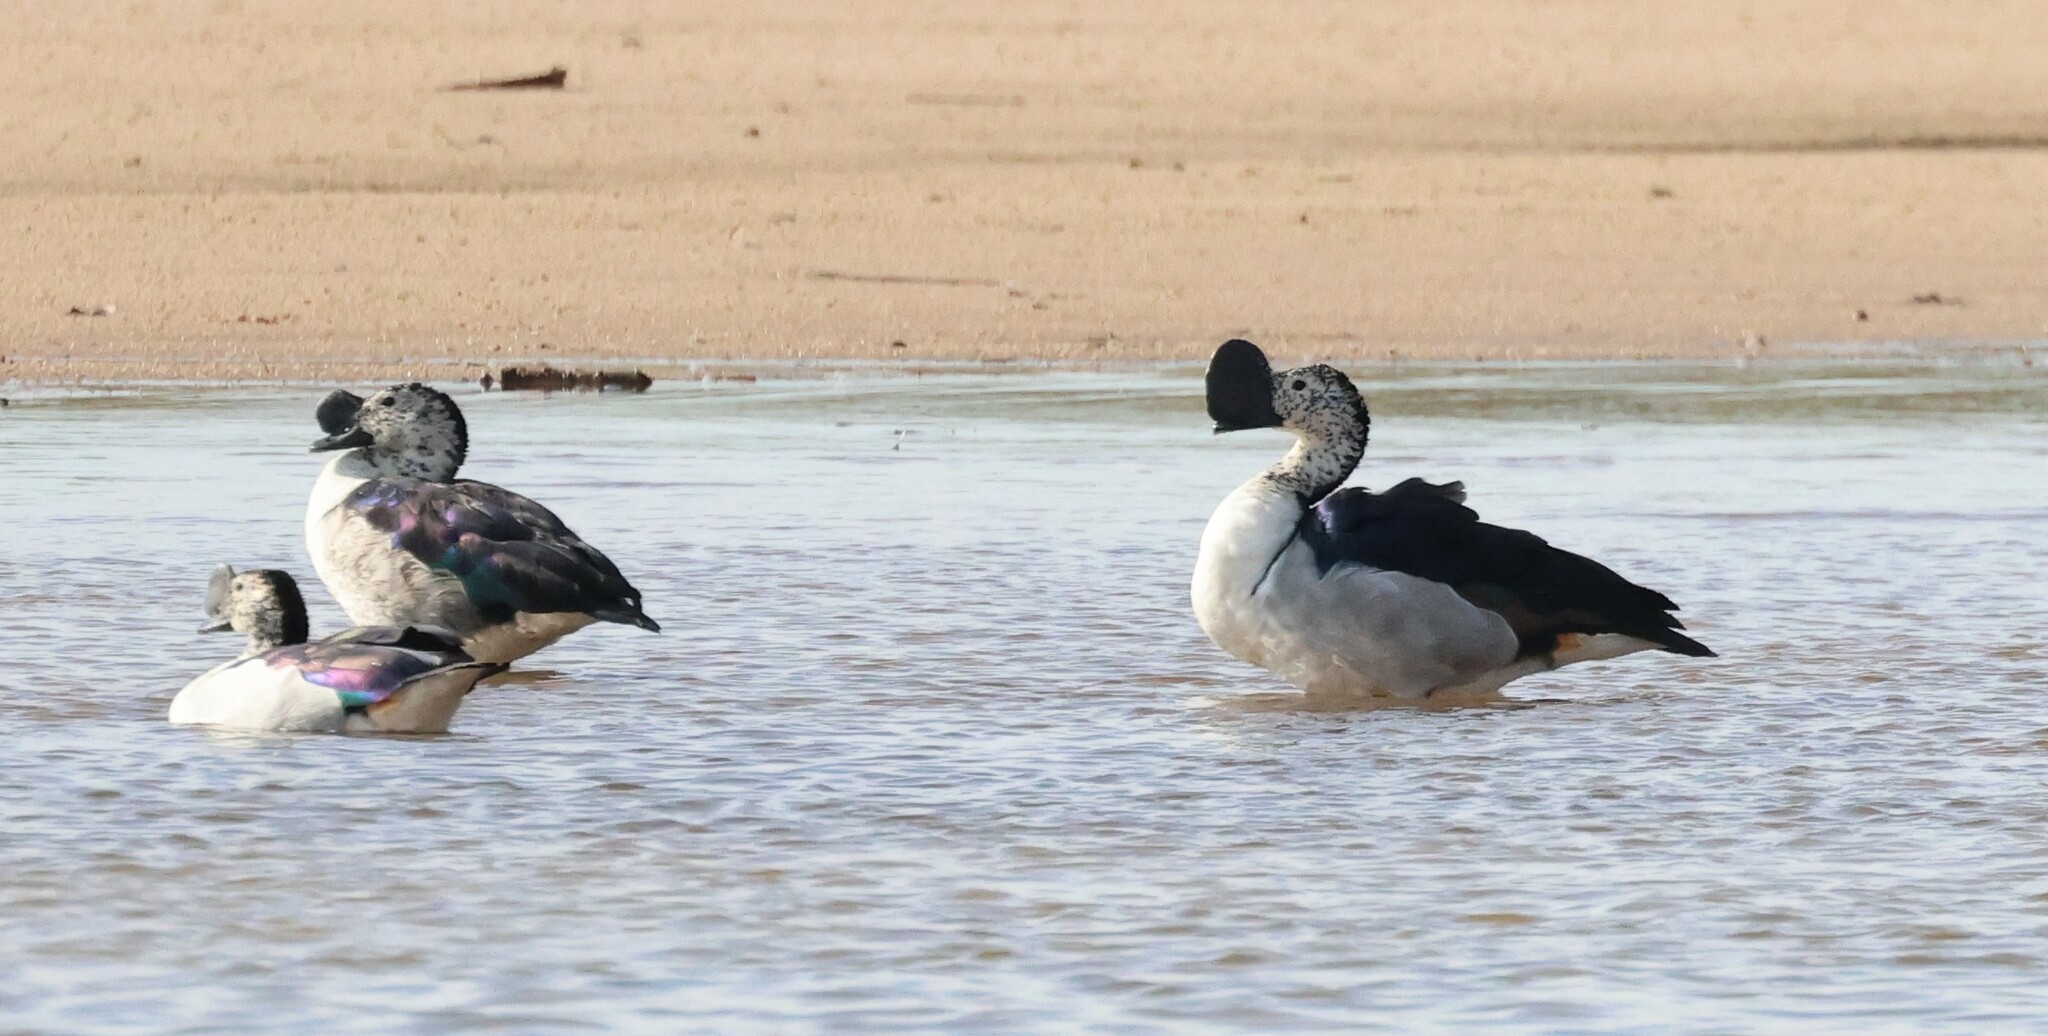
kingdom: Animalia
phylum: Chordata
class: Aves
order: Anseriformes
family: Anatidae
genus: Sarkidiornis
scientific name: Sarkidiornis melanotos
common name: Comb duck
